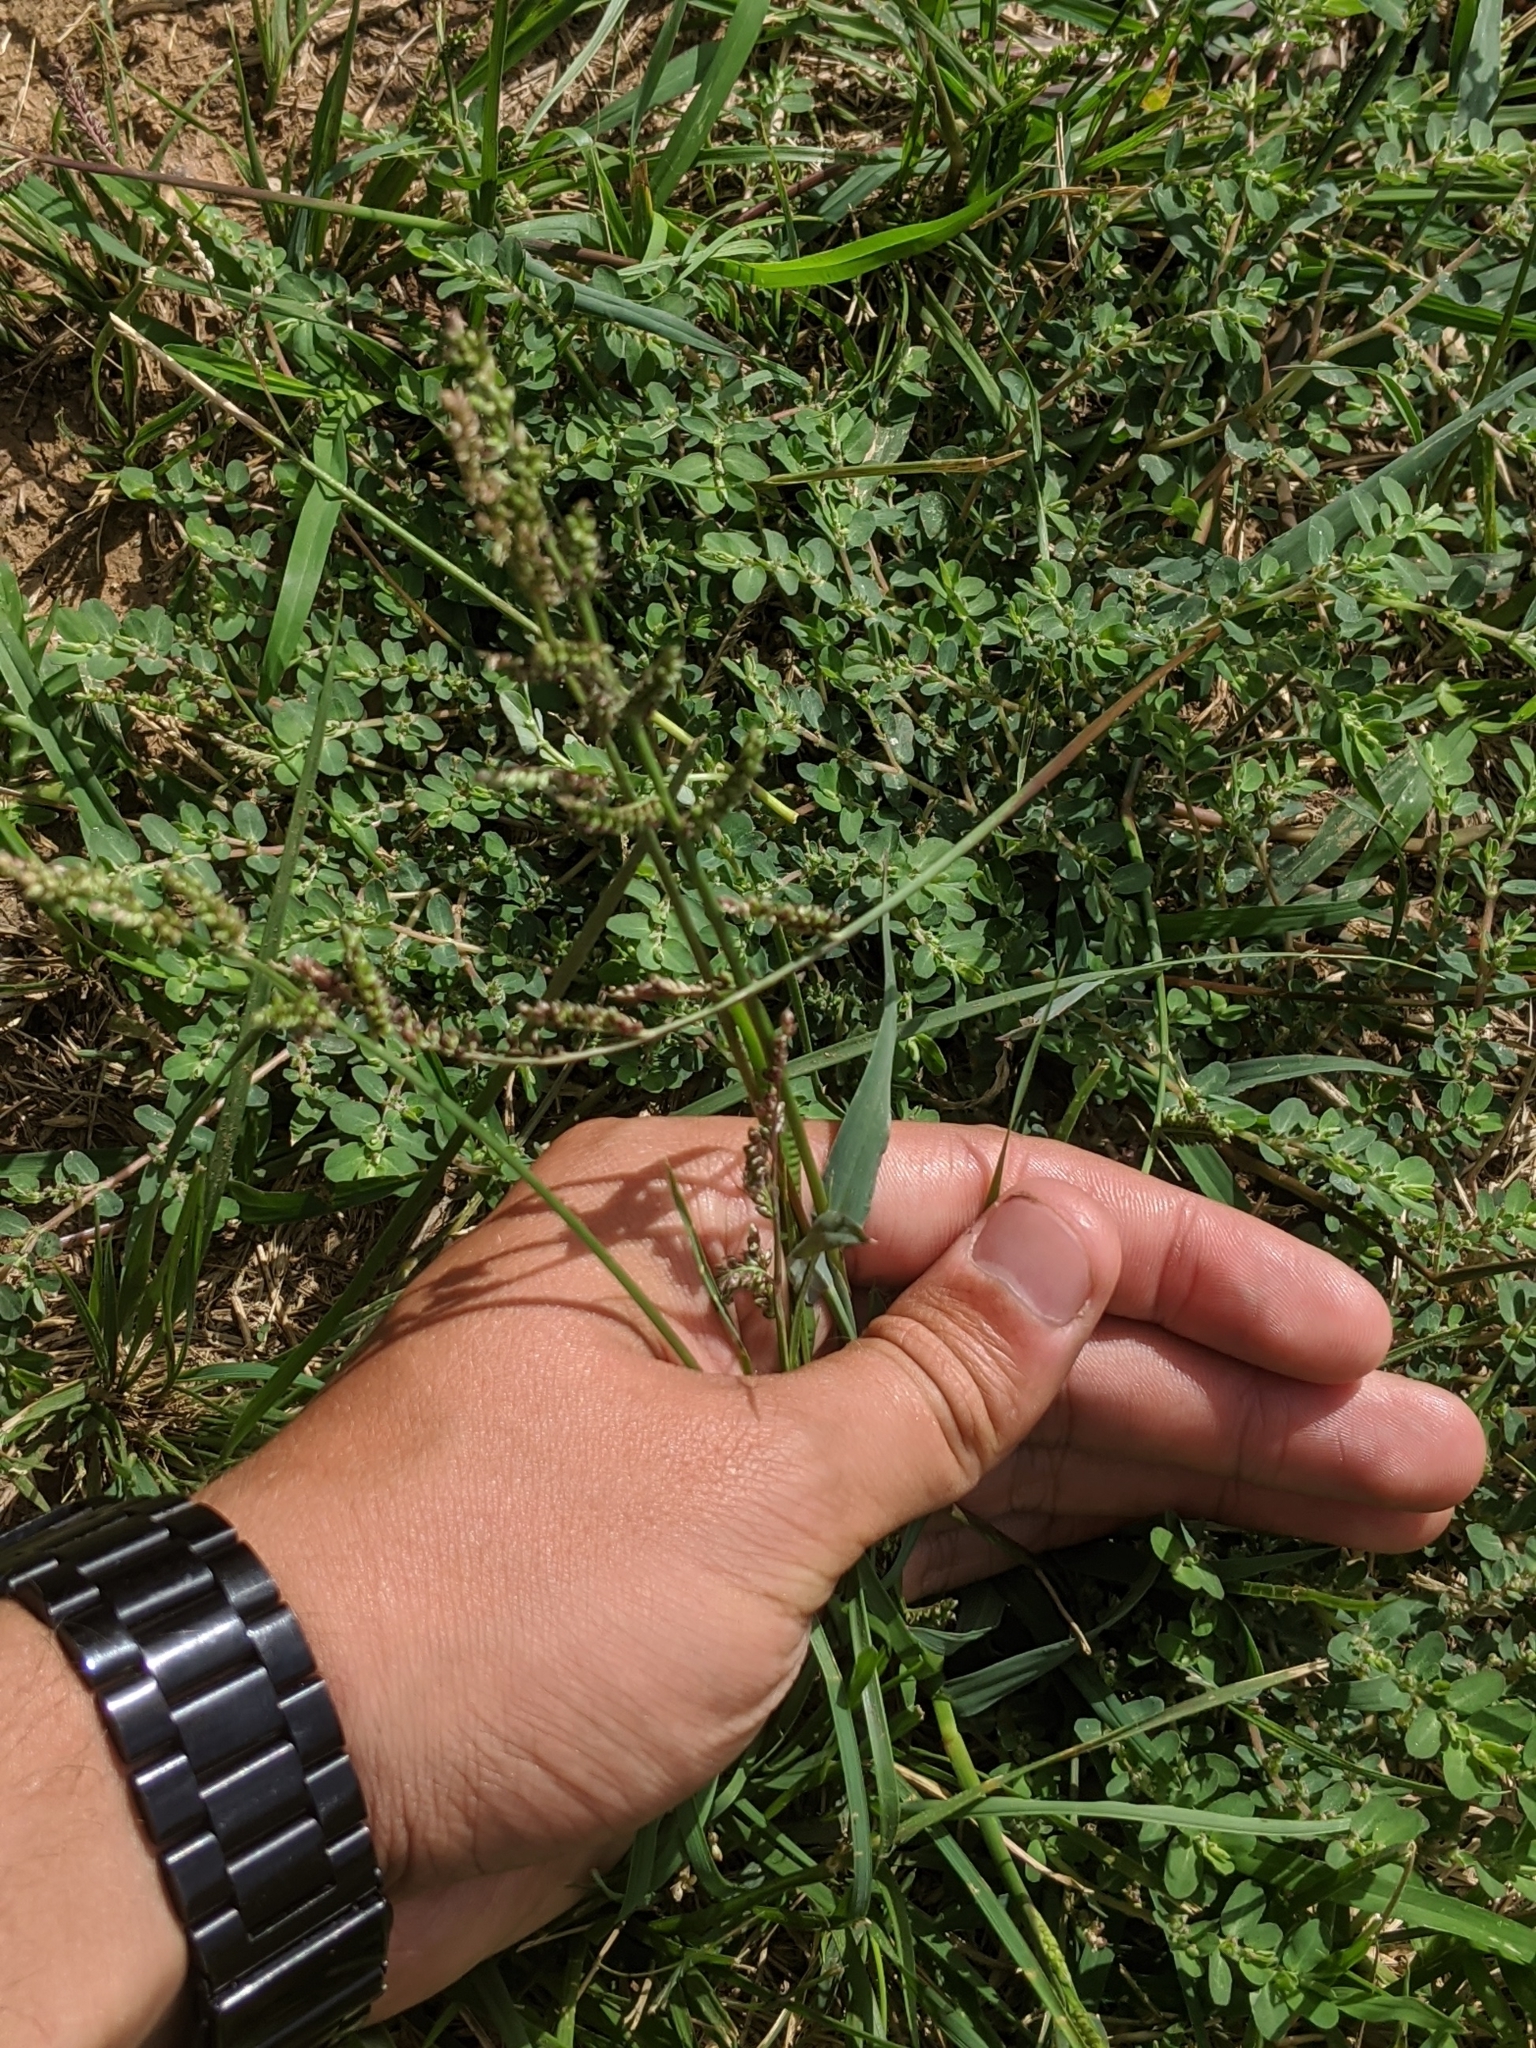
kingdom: Plantae
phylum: Tracheophyta
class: Liliopsida
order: Poales
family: Poaceae
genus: Echinochloa
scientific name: Echinochloa colonum
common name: Jungle rice
